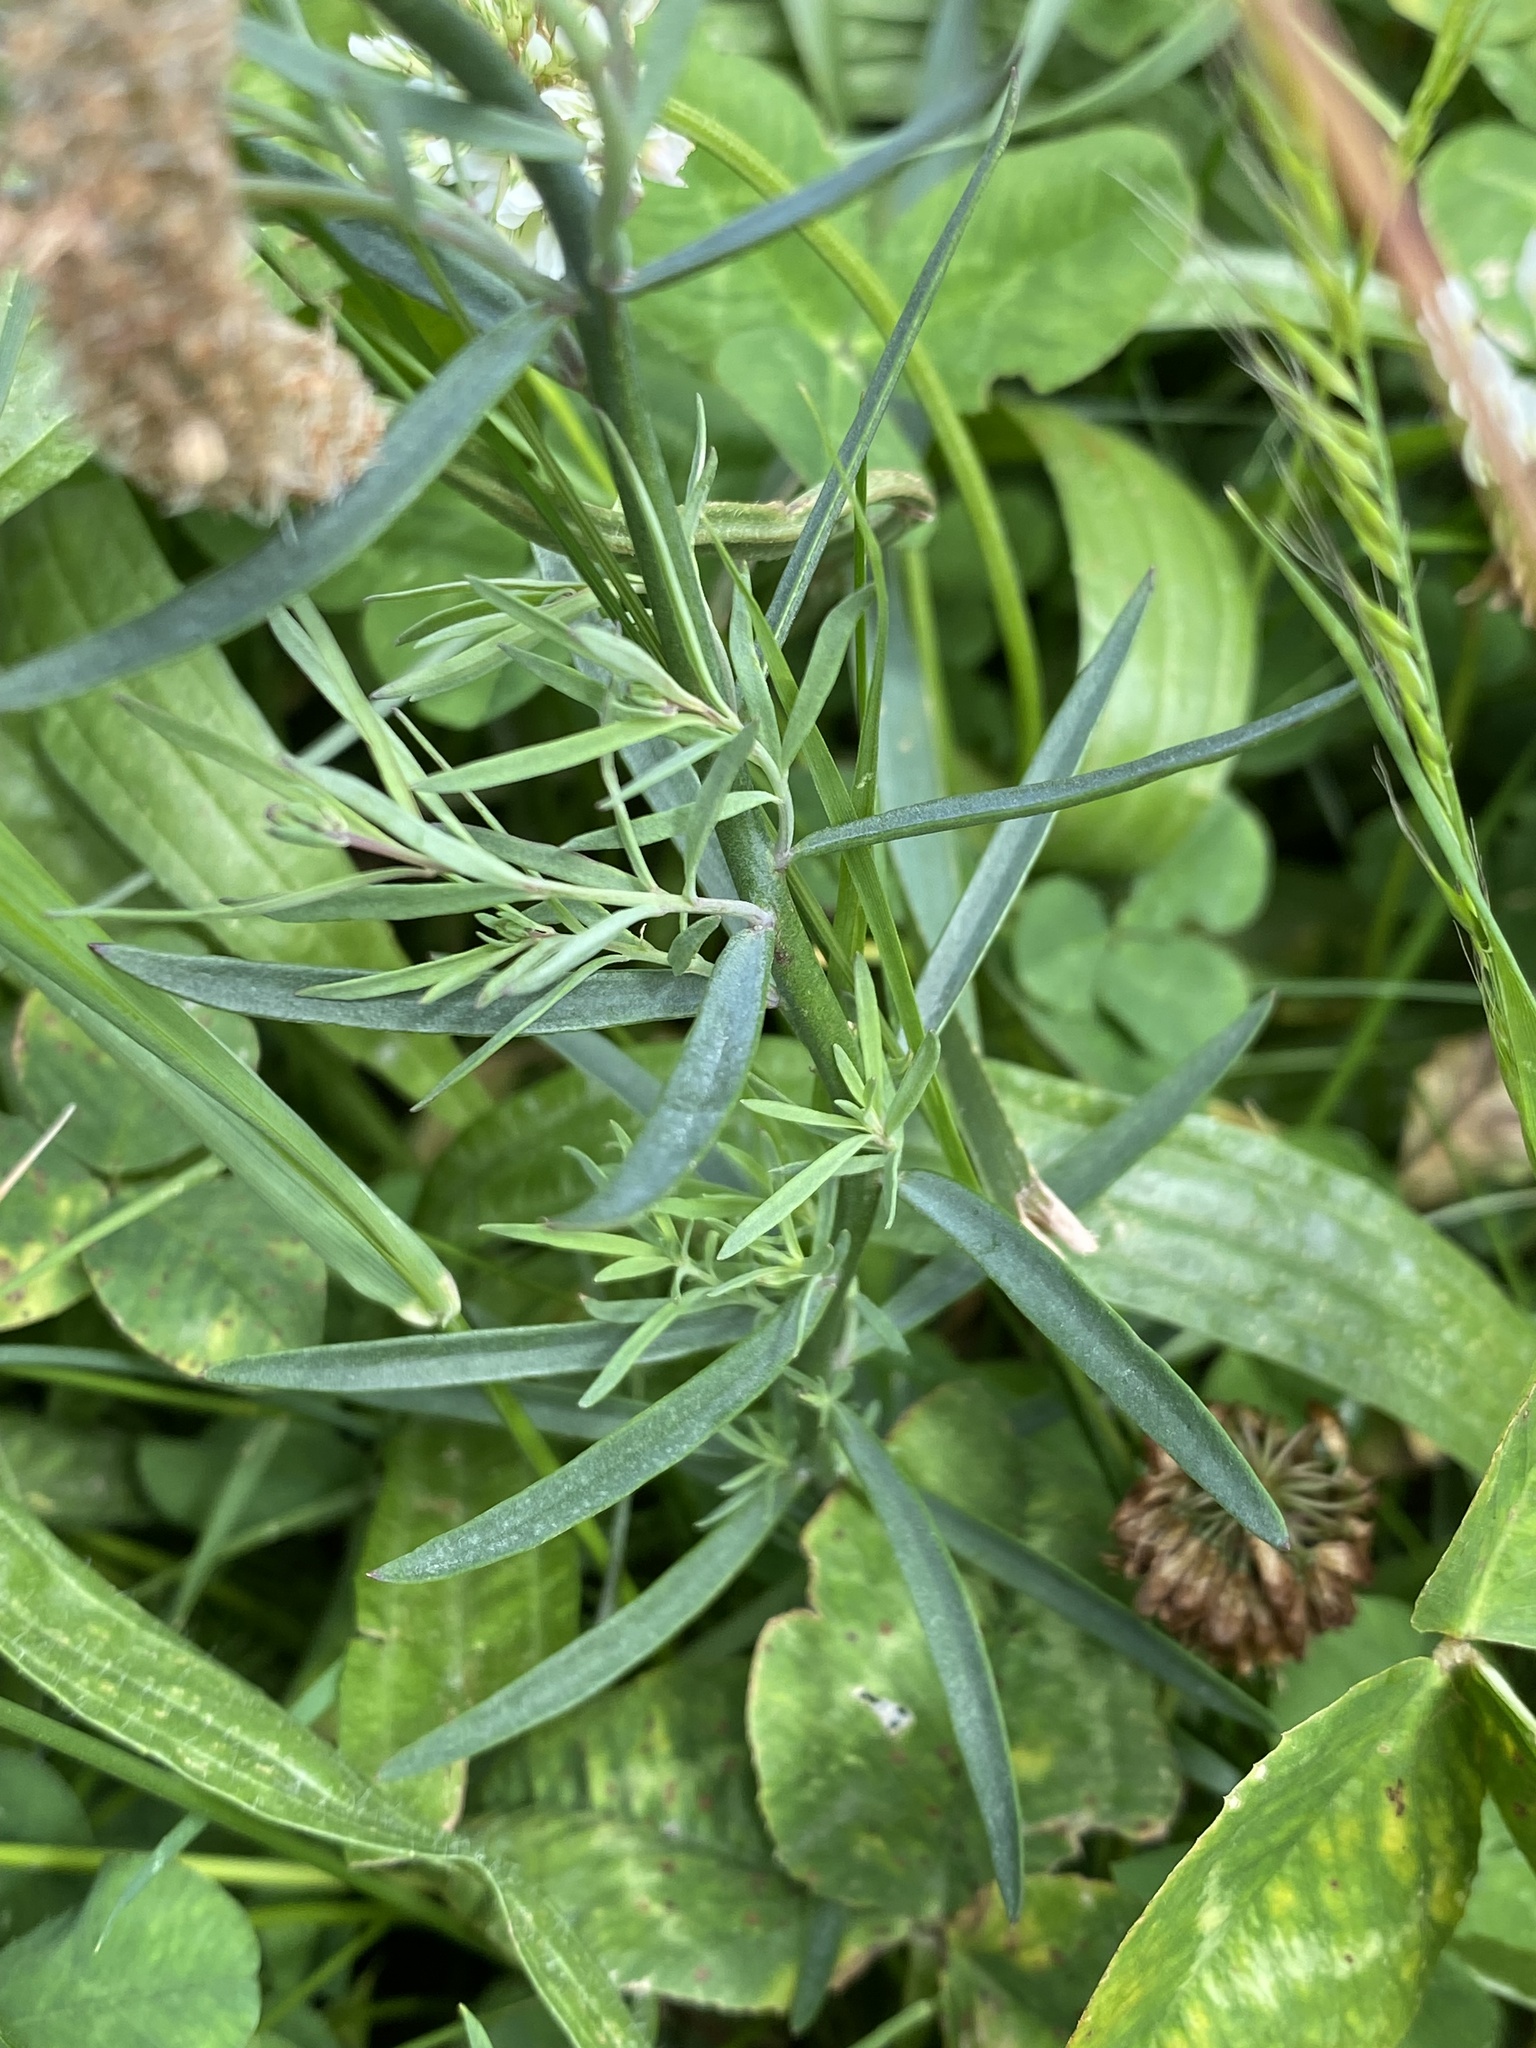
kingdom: Plantae
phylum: Tracheophyta
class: Magnoliopsida
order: Lamiales
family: Plantaginaceae
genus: Linaria
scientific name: Linaria purpurea
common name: Purple toadflax
